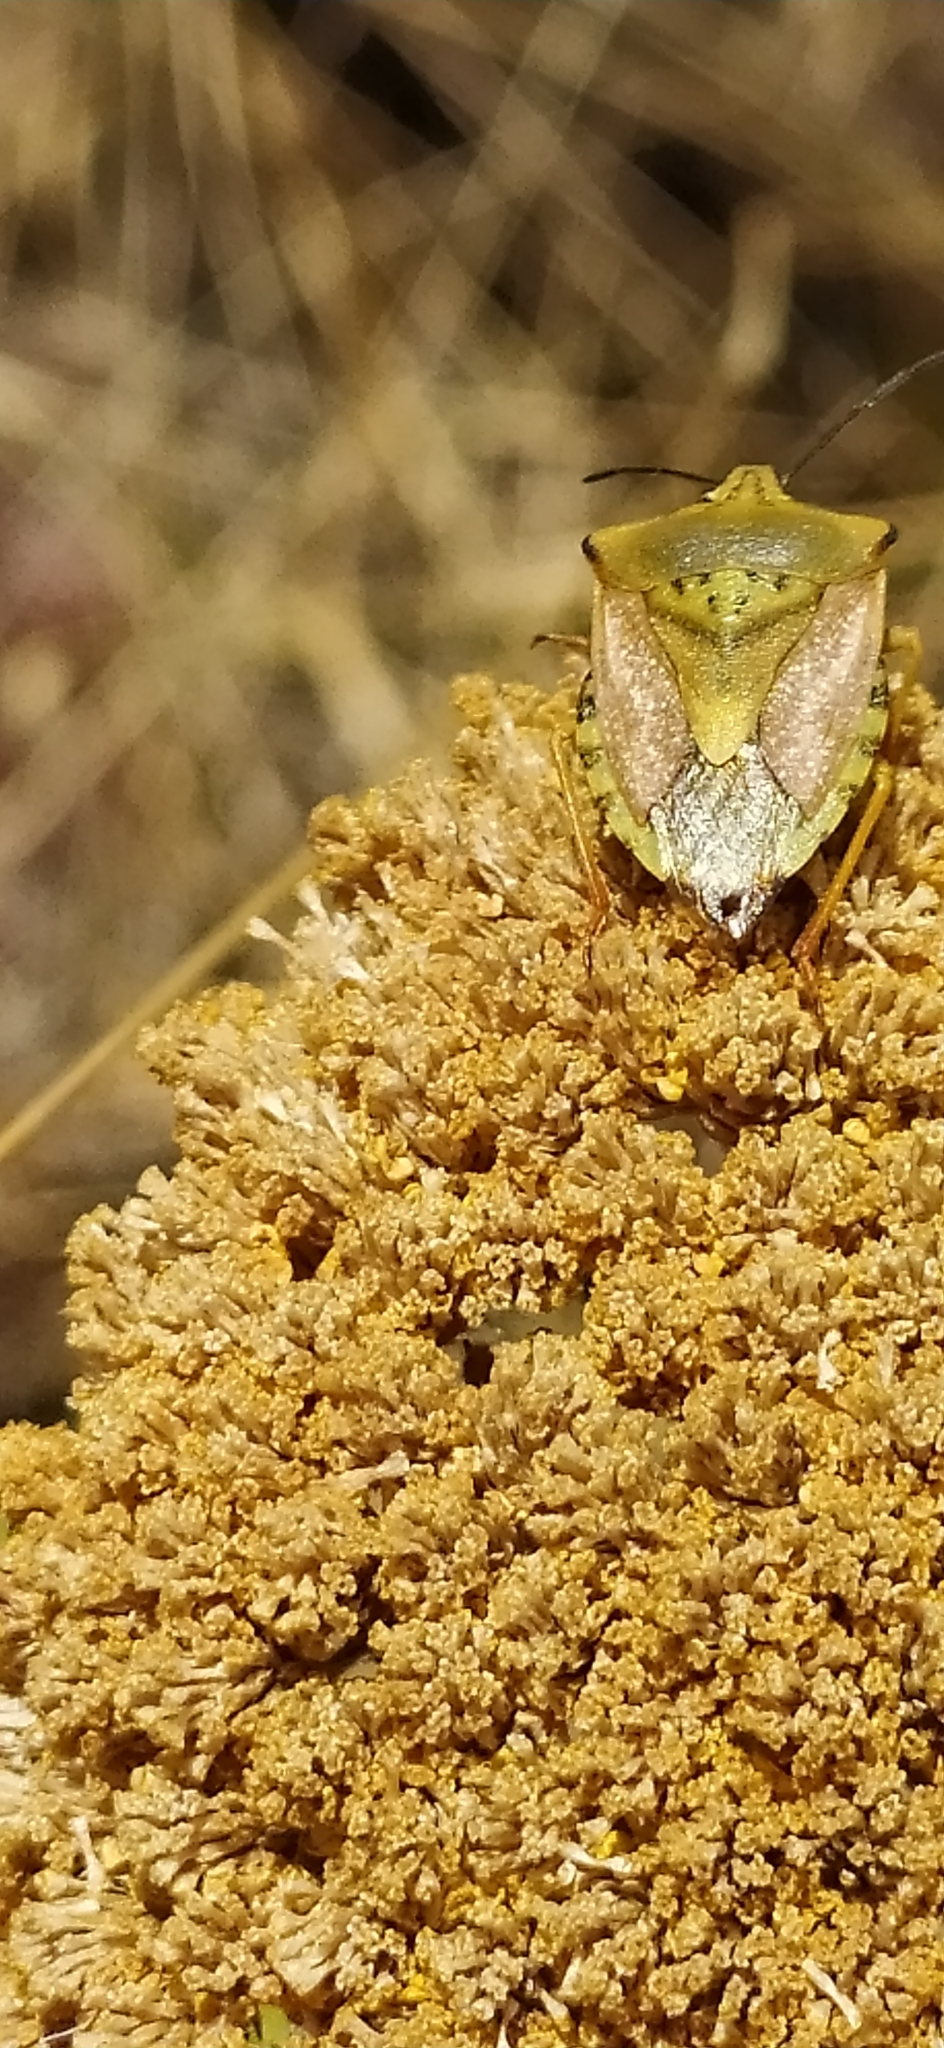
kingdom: Animalia
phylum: Arthropoda
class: Insecta
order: Hemiptera
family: Pentatomidae
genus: Carpocoris
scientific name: Carpocoris coreanus
